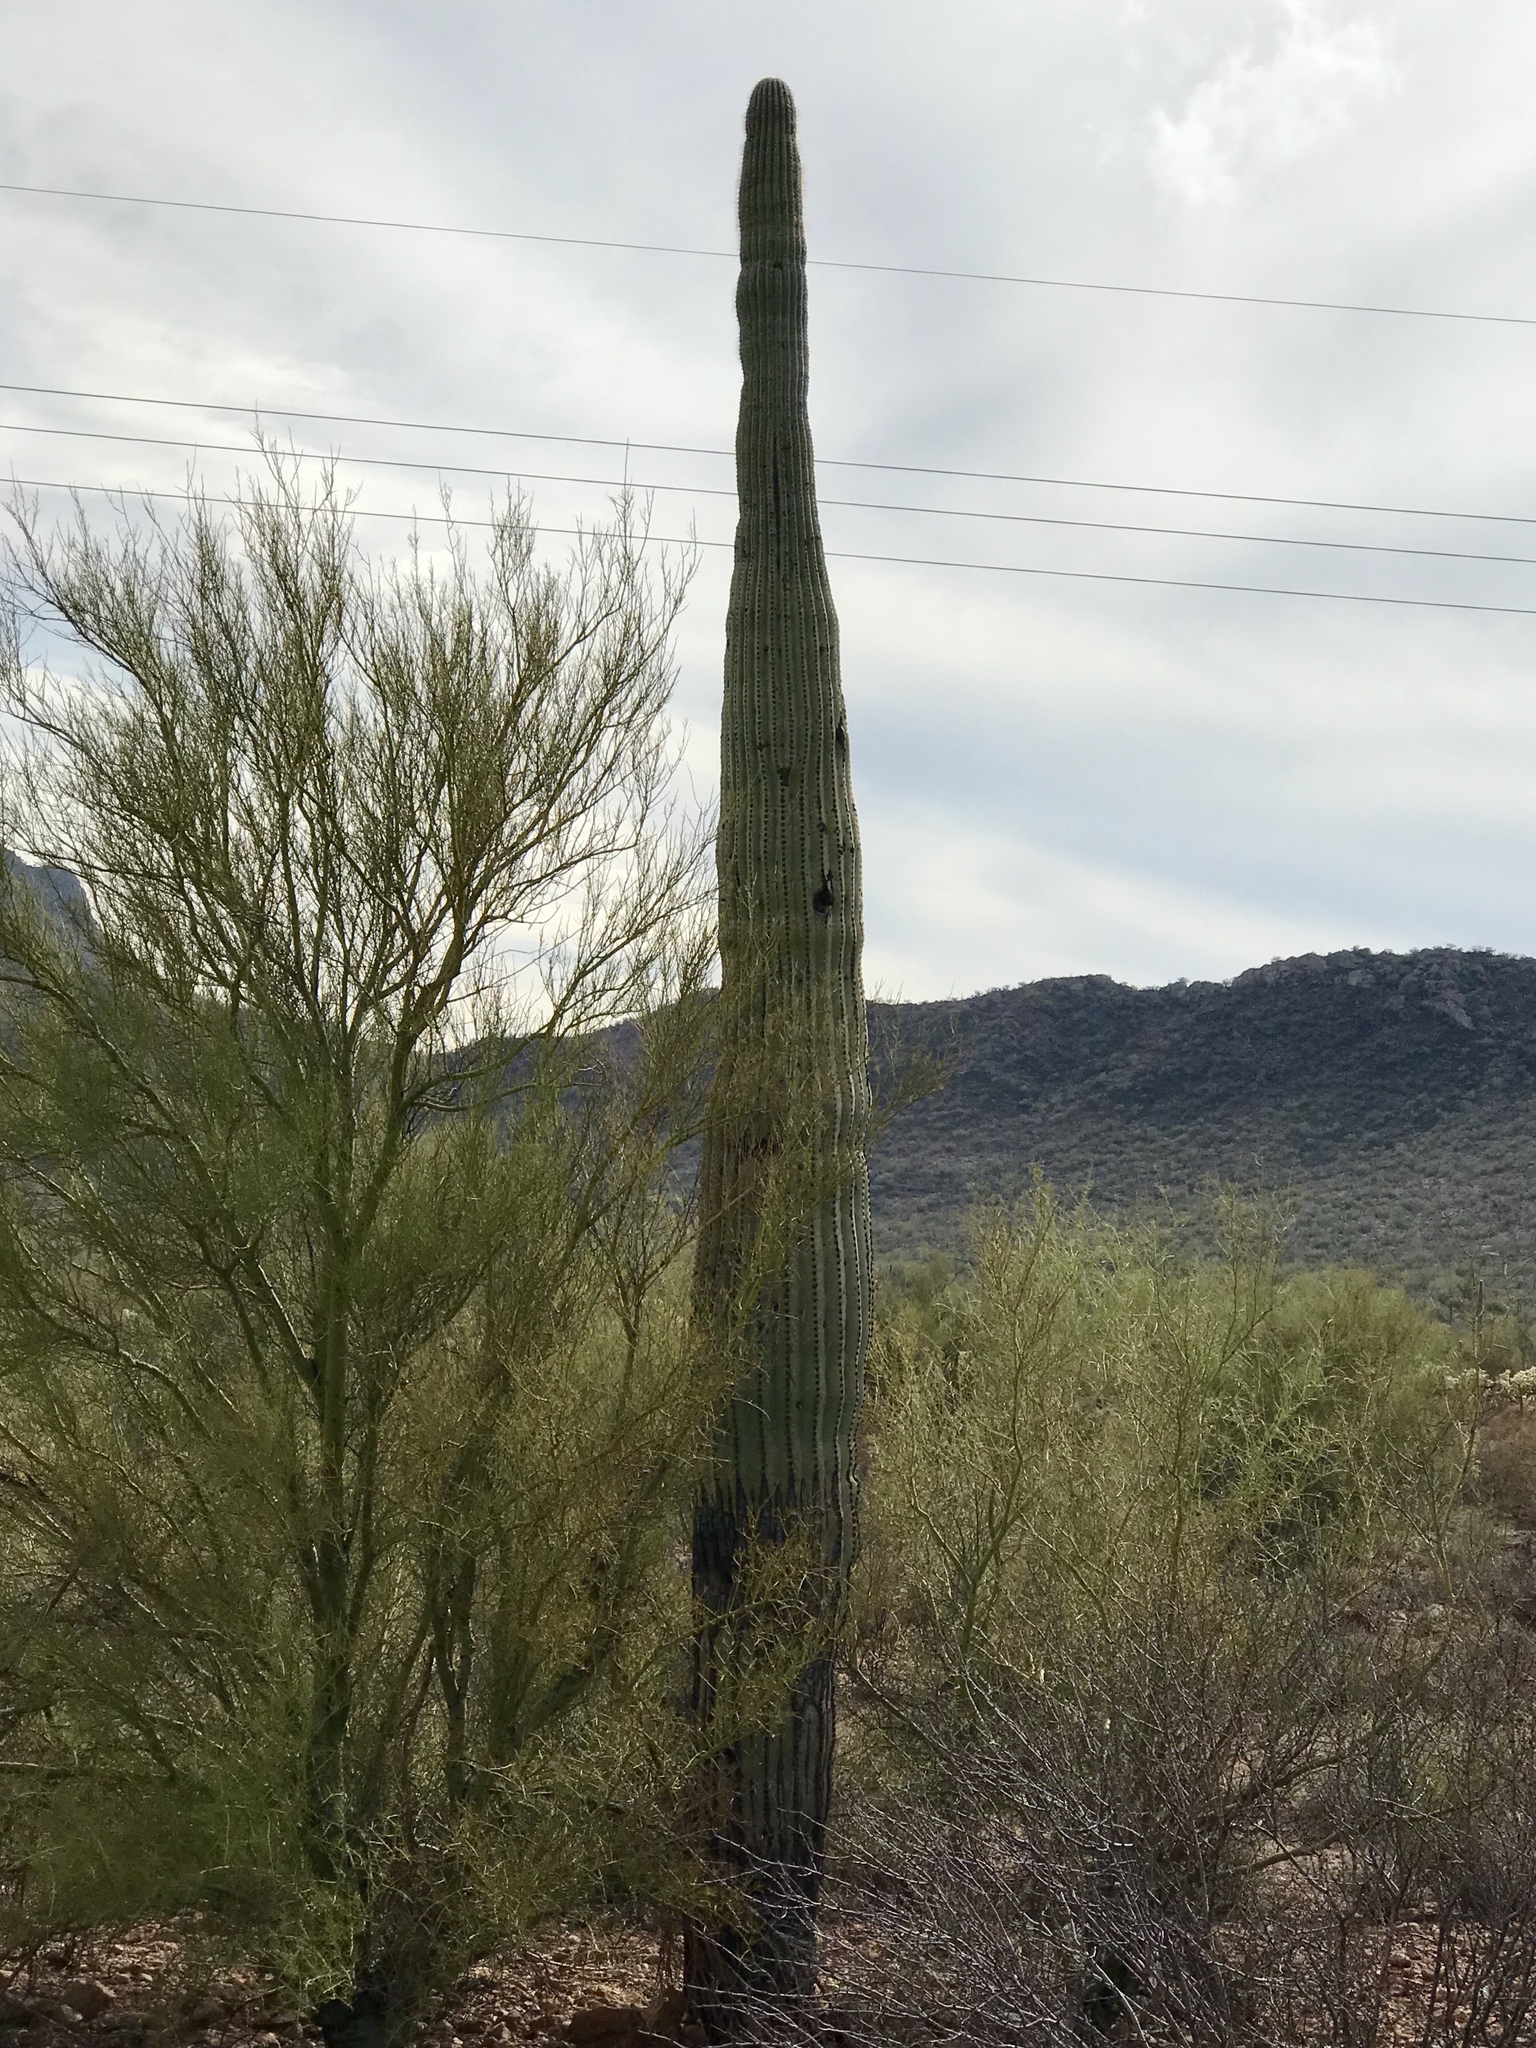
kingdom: Plantae
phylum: Tracheophyta
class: Magnoliopsida
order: Caryophyllales
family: Cactaceae
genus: Carnegiea
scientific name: Carnegiea gigantea
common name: Saguaro
